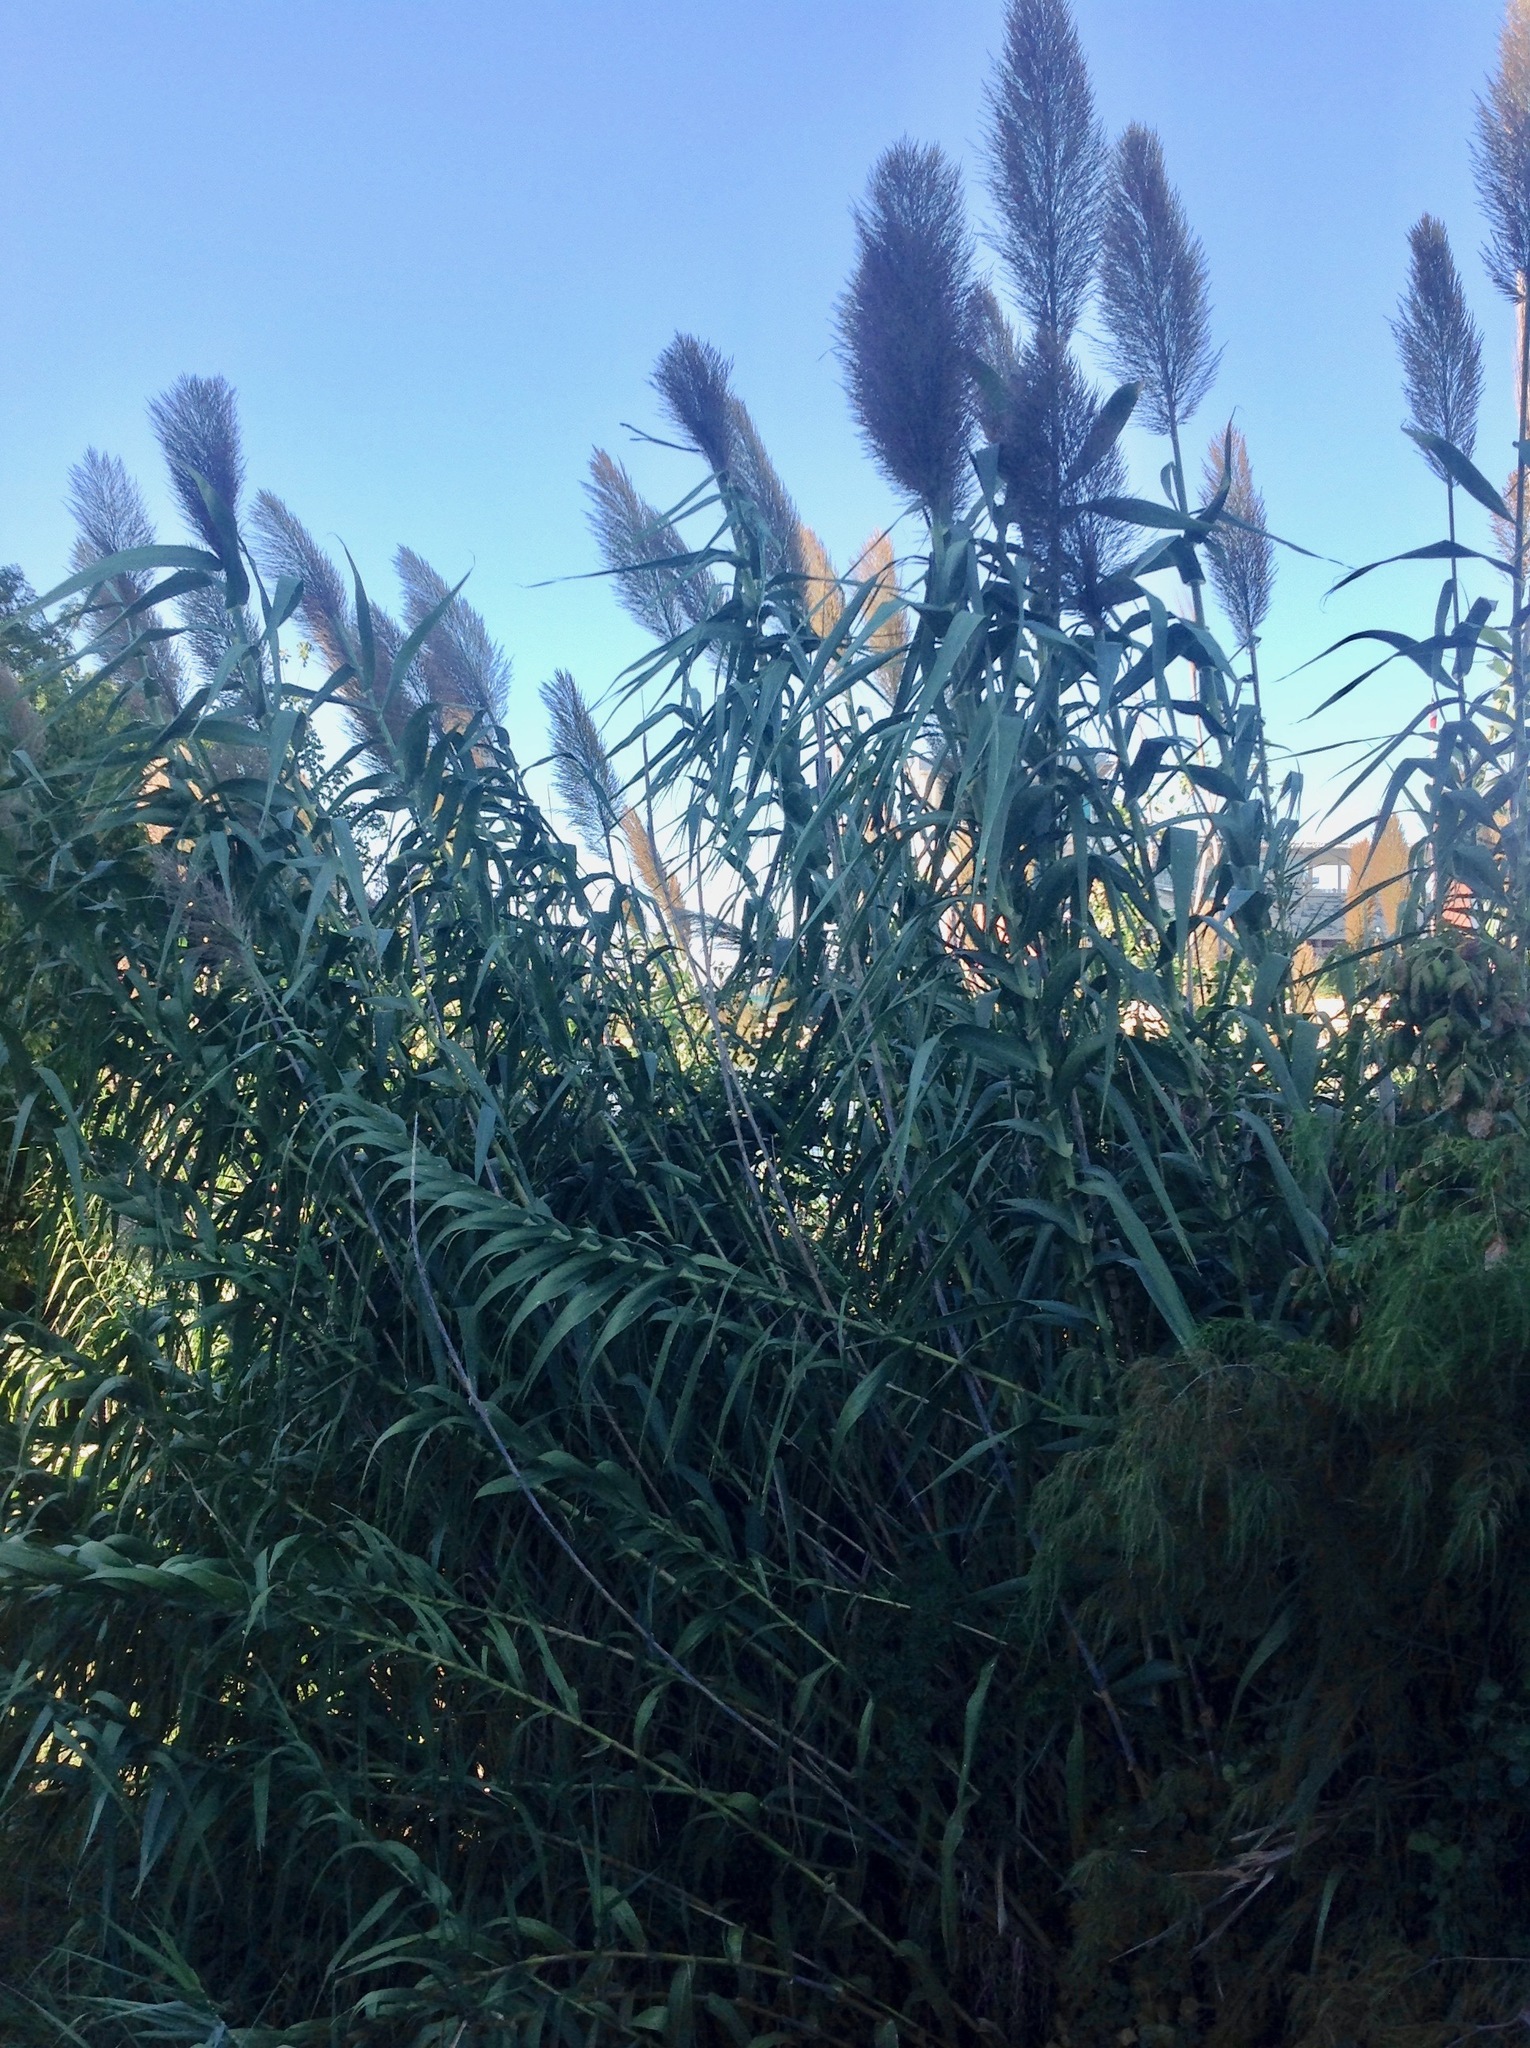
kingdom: Plantae
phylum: Tracheophyta
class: Liliopsida
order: Poales
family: Poaceae
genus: Arundo
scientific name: Arundo donax
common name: Giant reed
